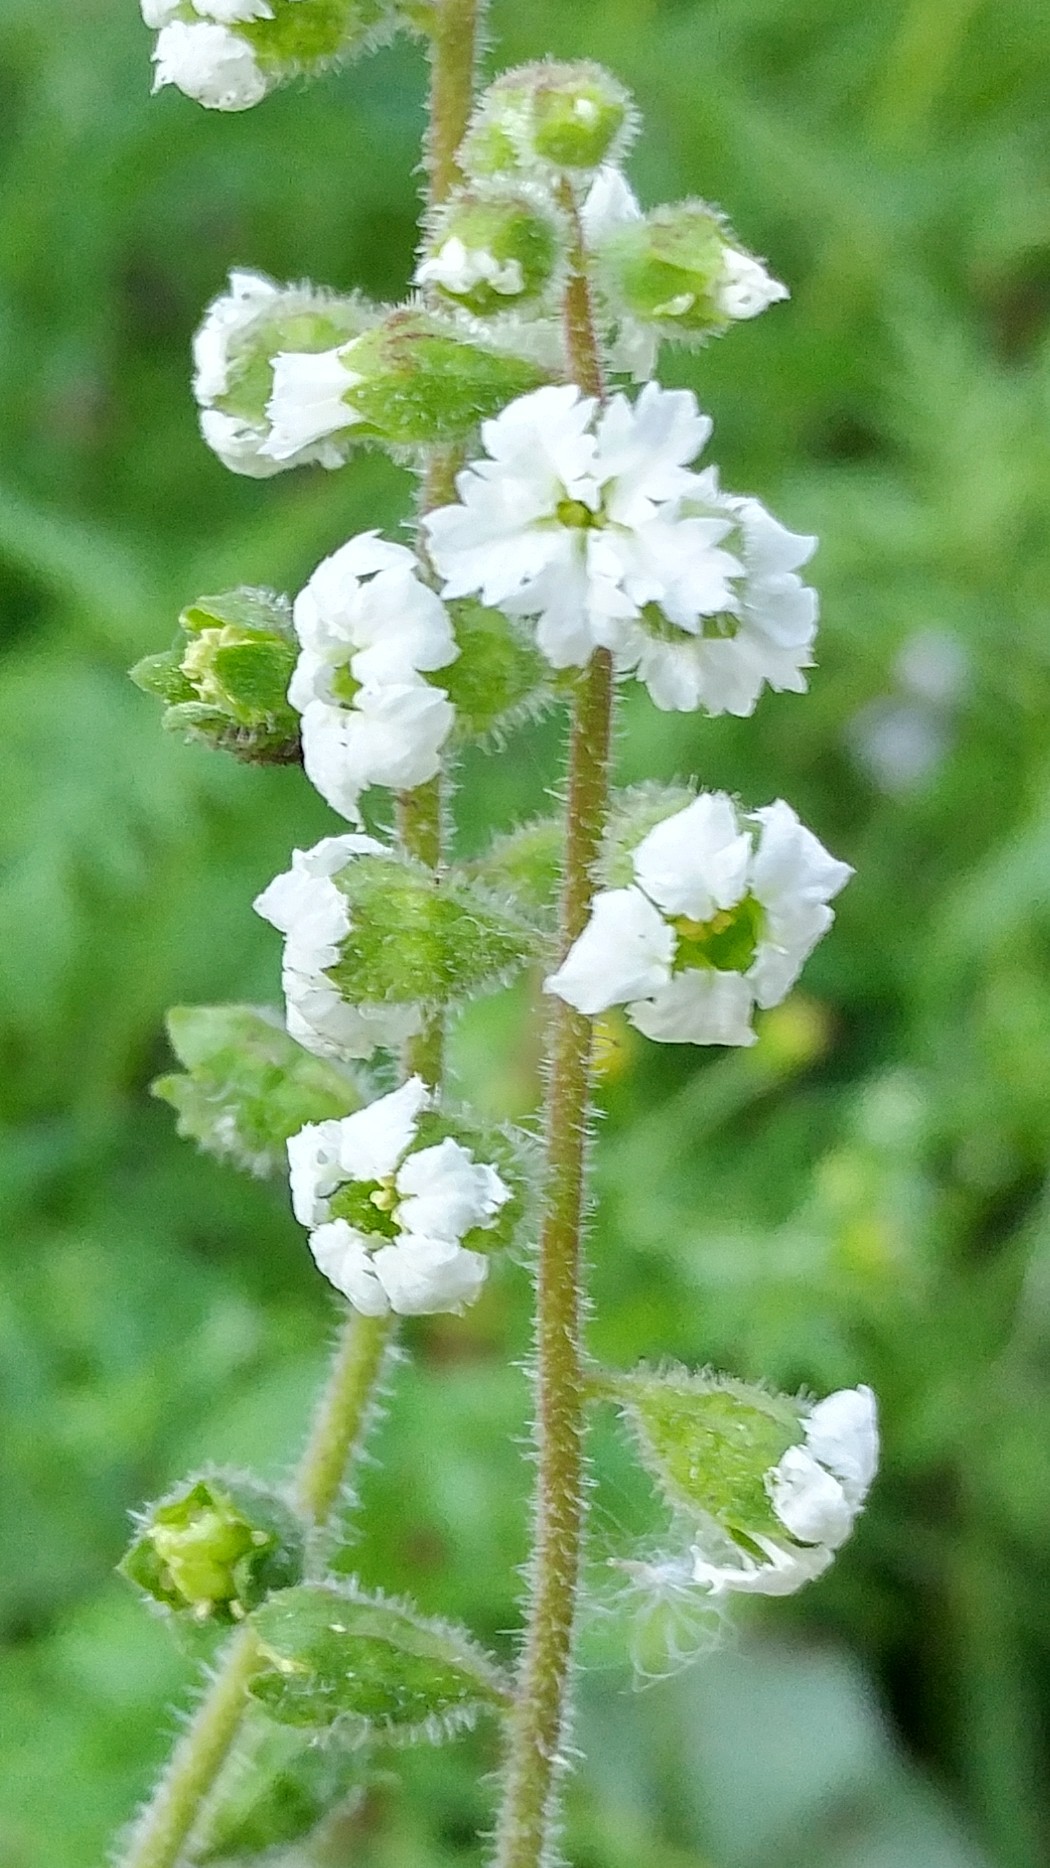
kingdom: Plantae
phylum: Tracheophyta
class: Magnoliopsida
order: Saxifragales
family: Saxifragaceae
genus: Lithophragma
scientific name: Lithophragma maxima
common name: San clemente island woodland-star
